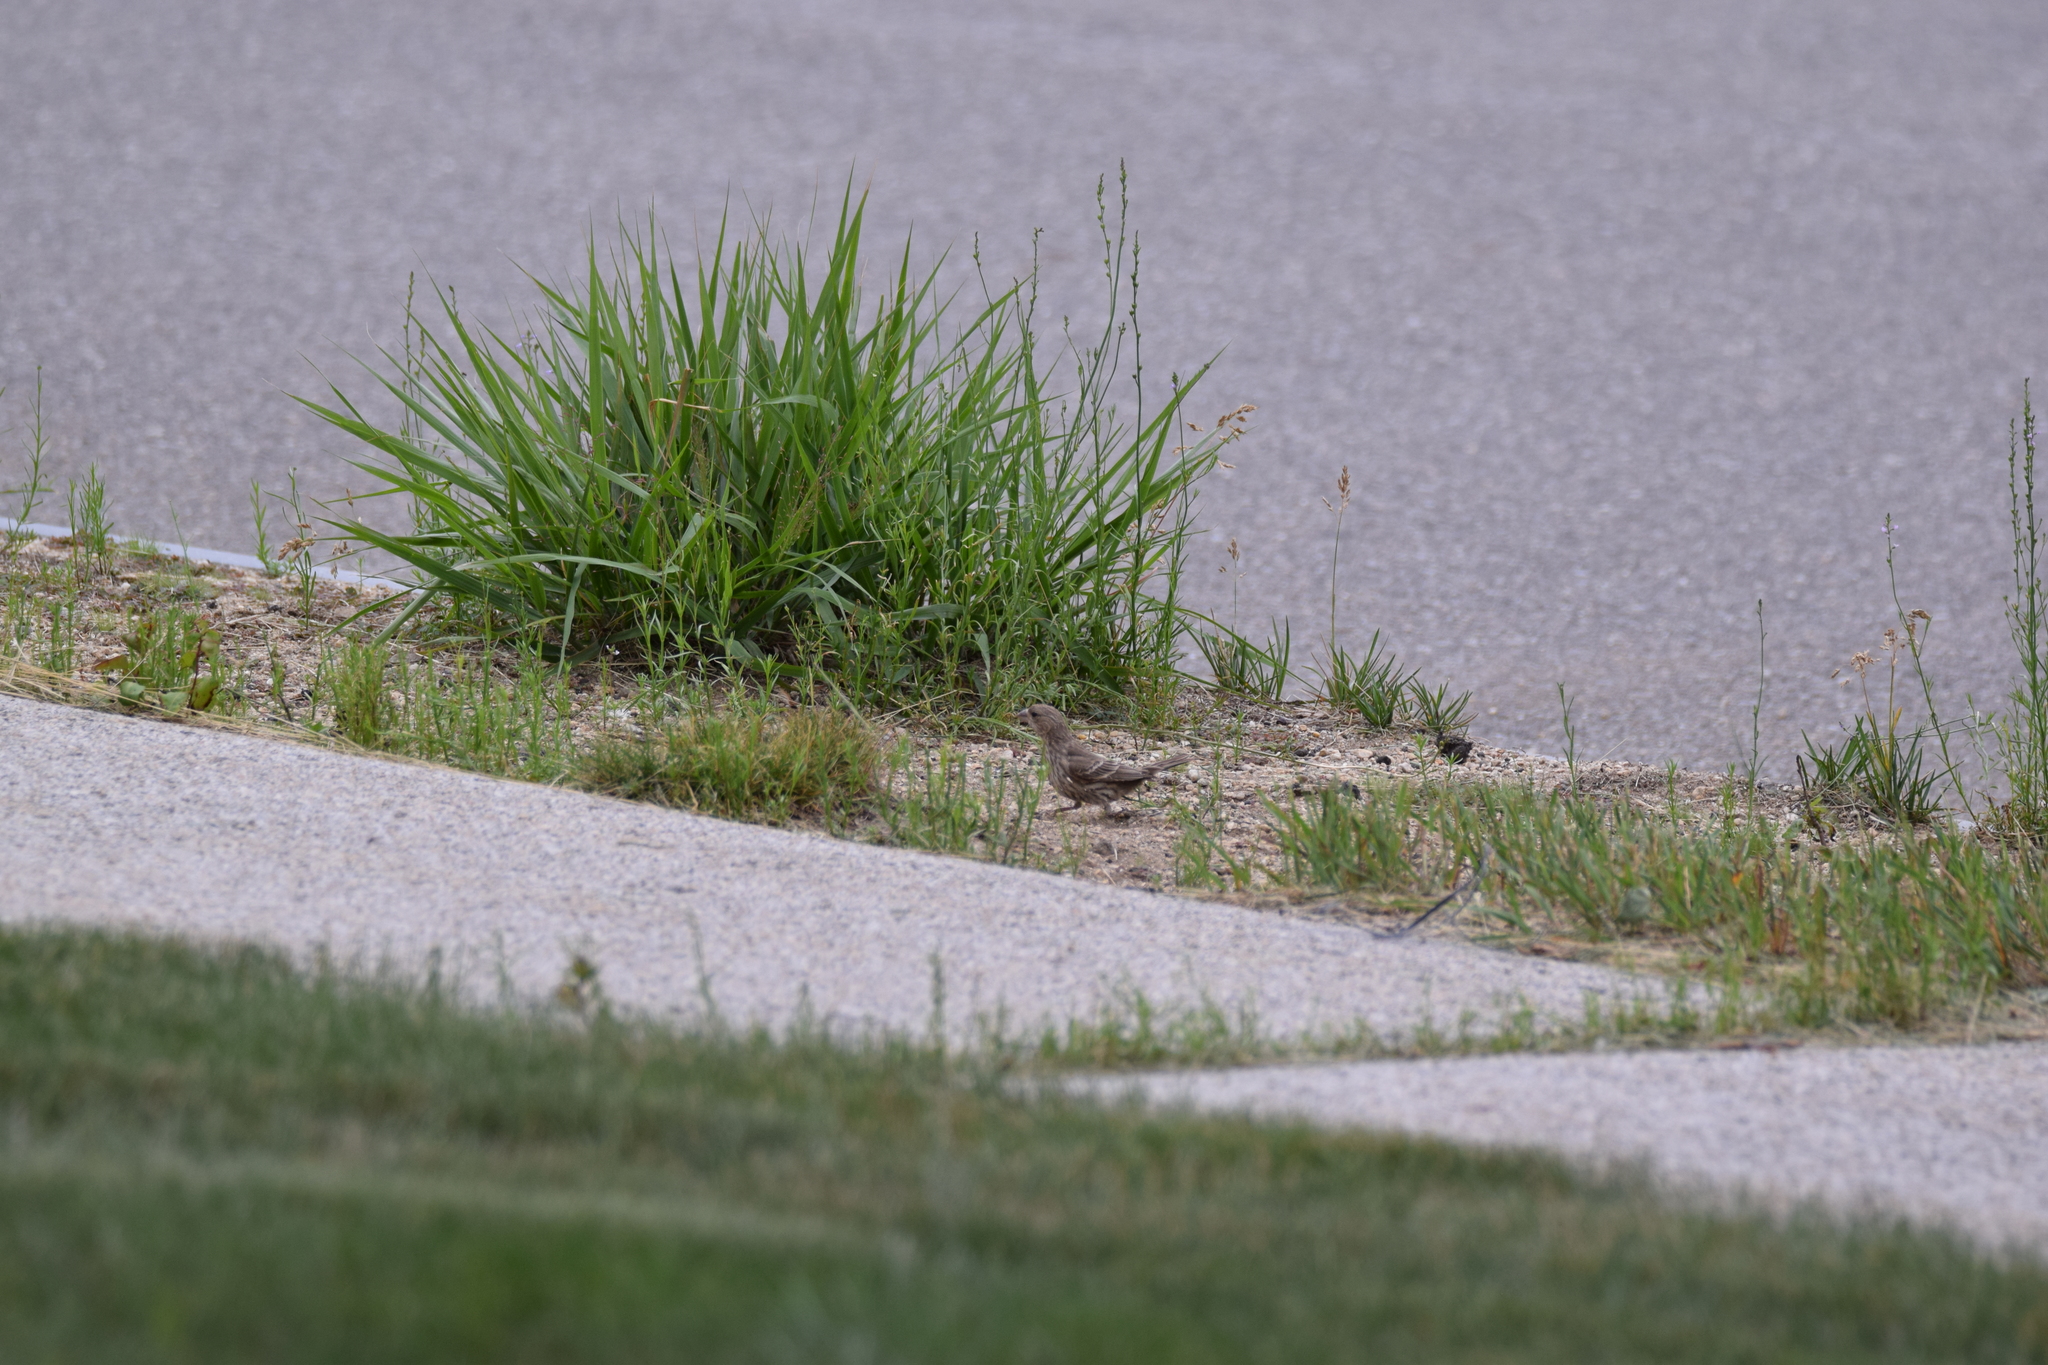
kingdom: Animalia
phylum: Chordata
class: Aves
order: Passeriformes
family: Fringillidae
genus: Haemorhous
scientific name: Haemorhous mexicanus
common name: House finch
